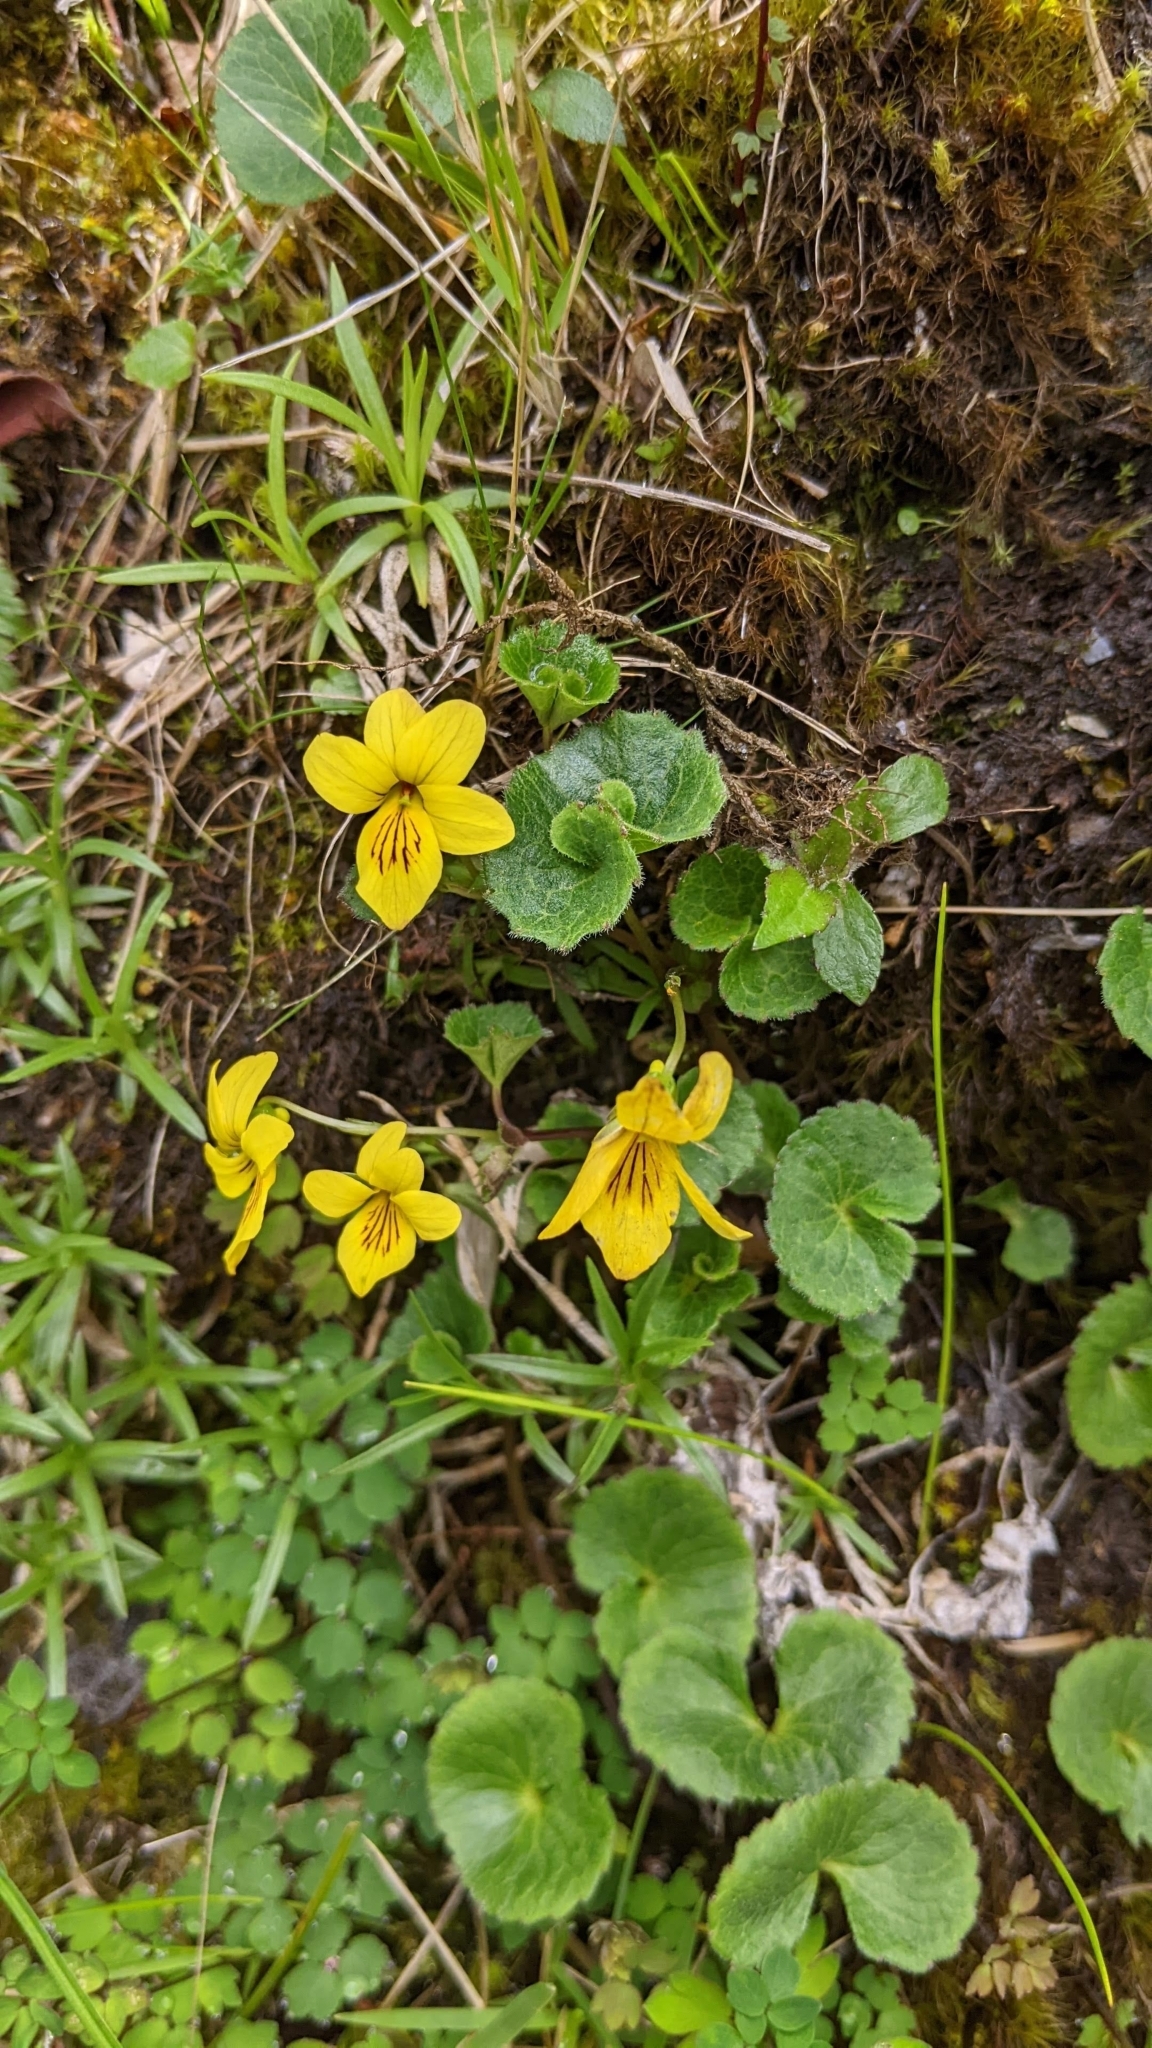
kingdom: Plantae
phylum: Tracheophyta
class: Magnoliopsida
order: Malpighiales
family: Violaceae
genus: Viola
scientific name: Viola biflora
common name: Alpine yellow violet
